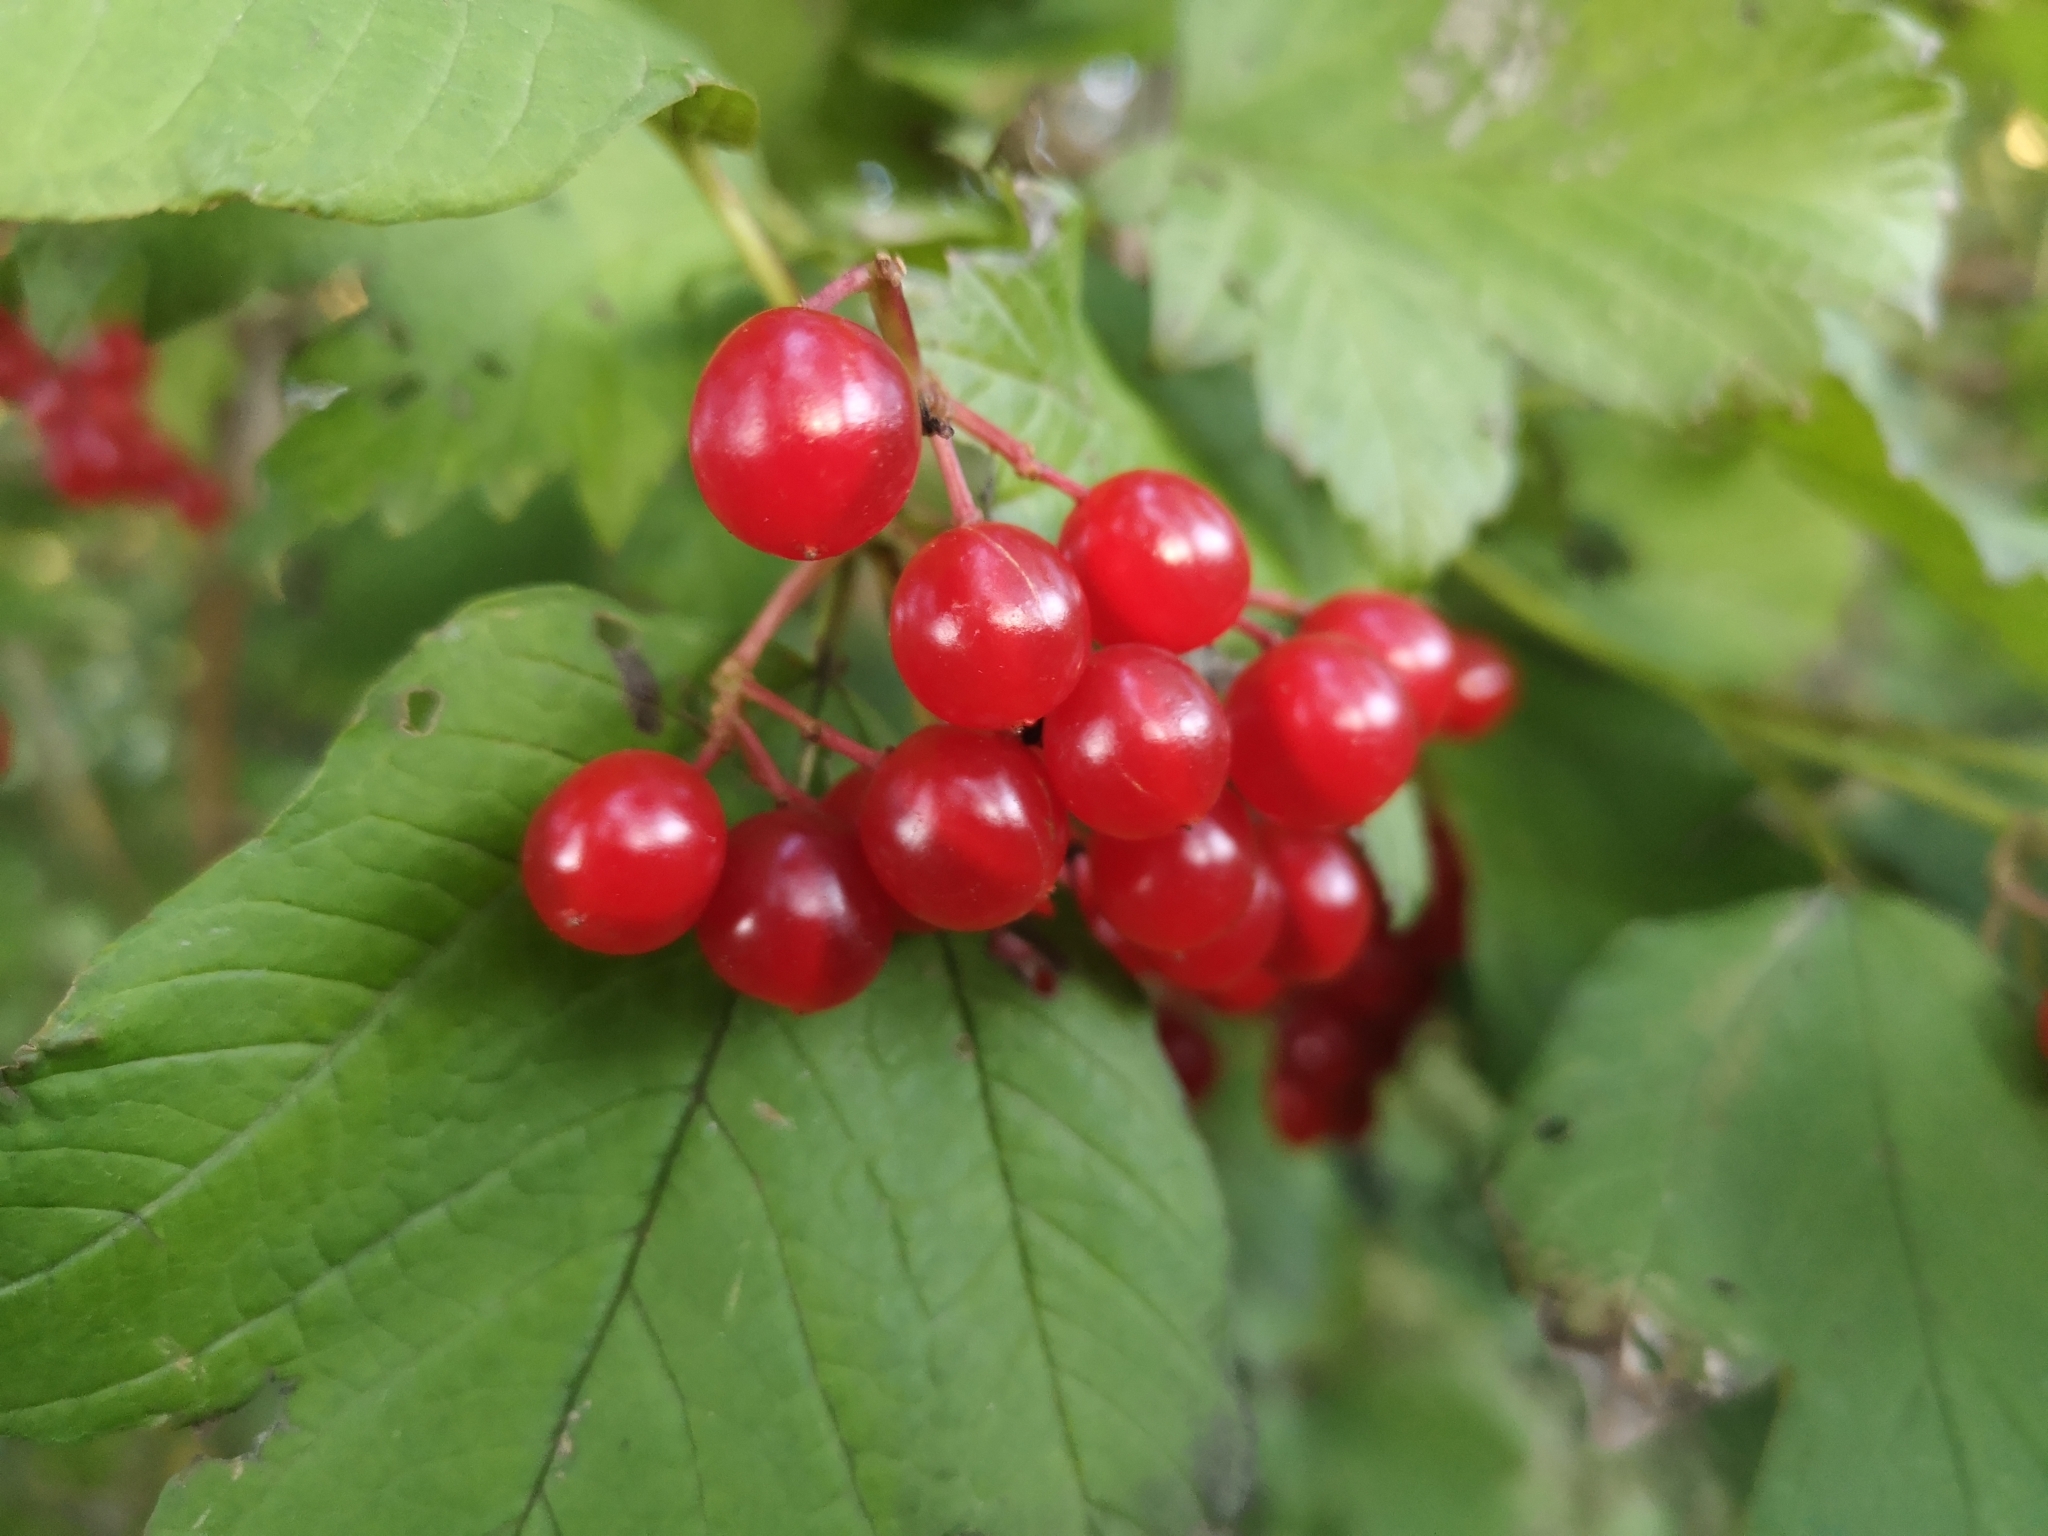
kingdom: Plantae
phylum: Tracheophyta
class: Magnoliopsida
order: Dipsacales
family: Viburnaceae
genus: Viburnum
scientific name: Viburnum opulus
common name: Guelder-rose
